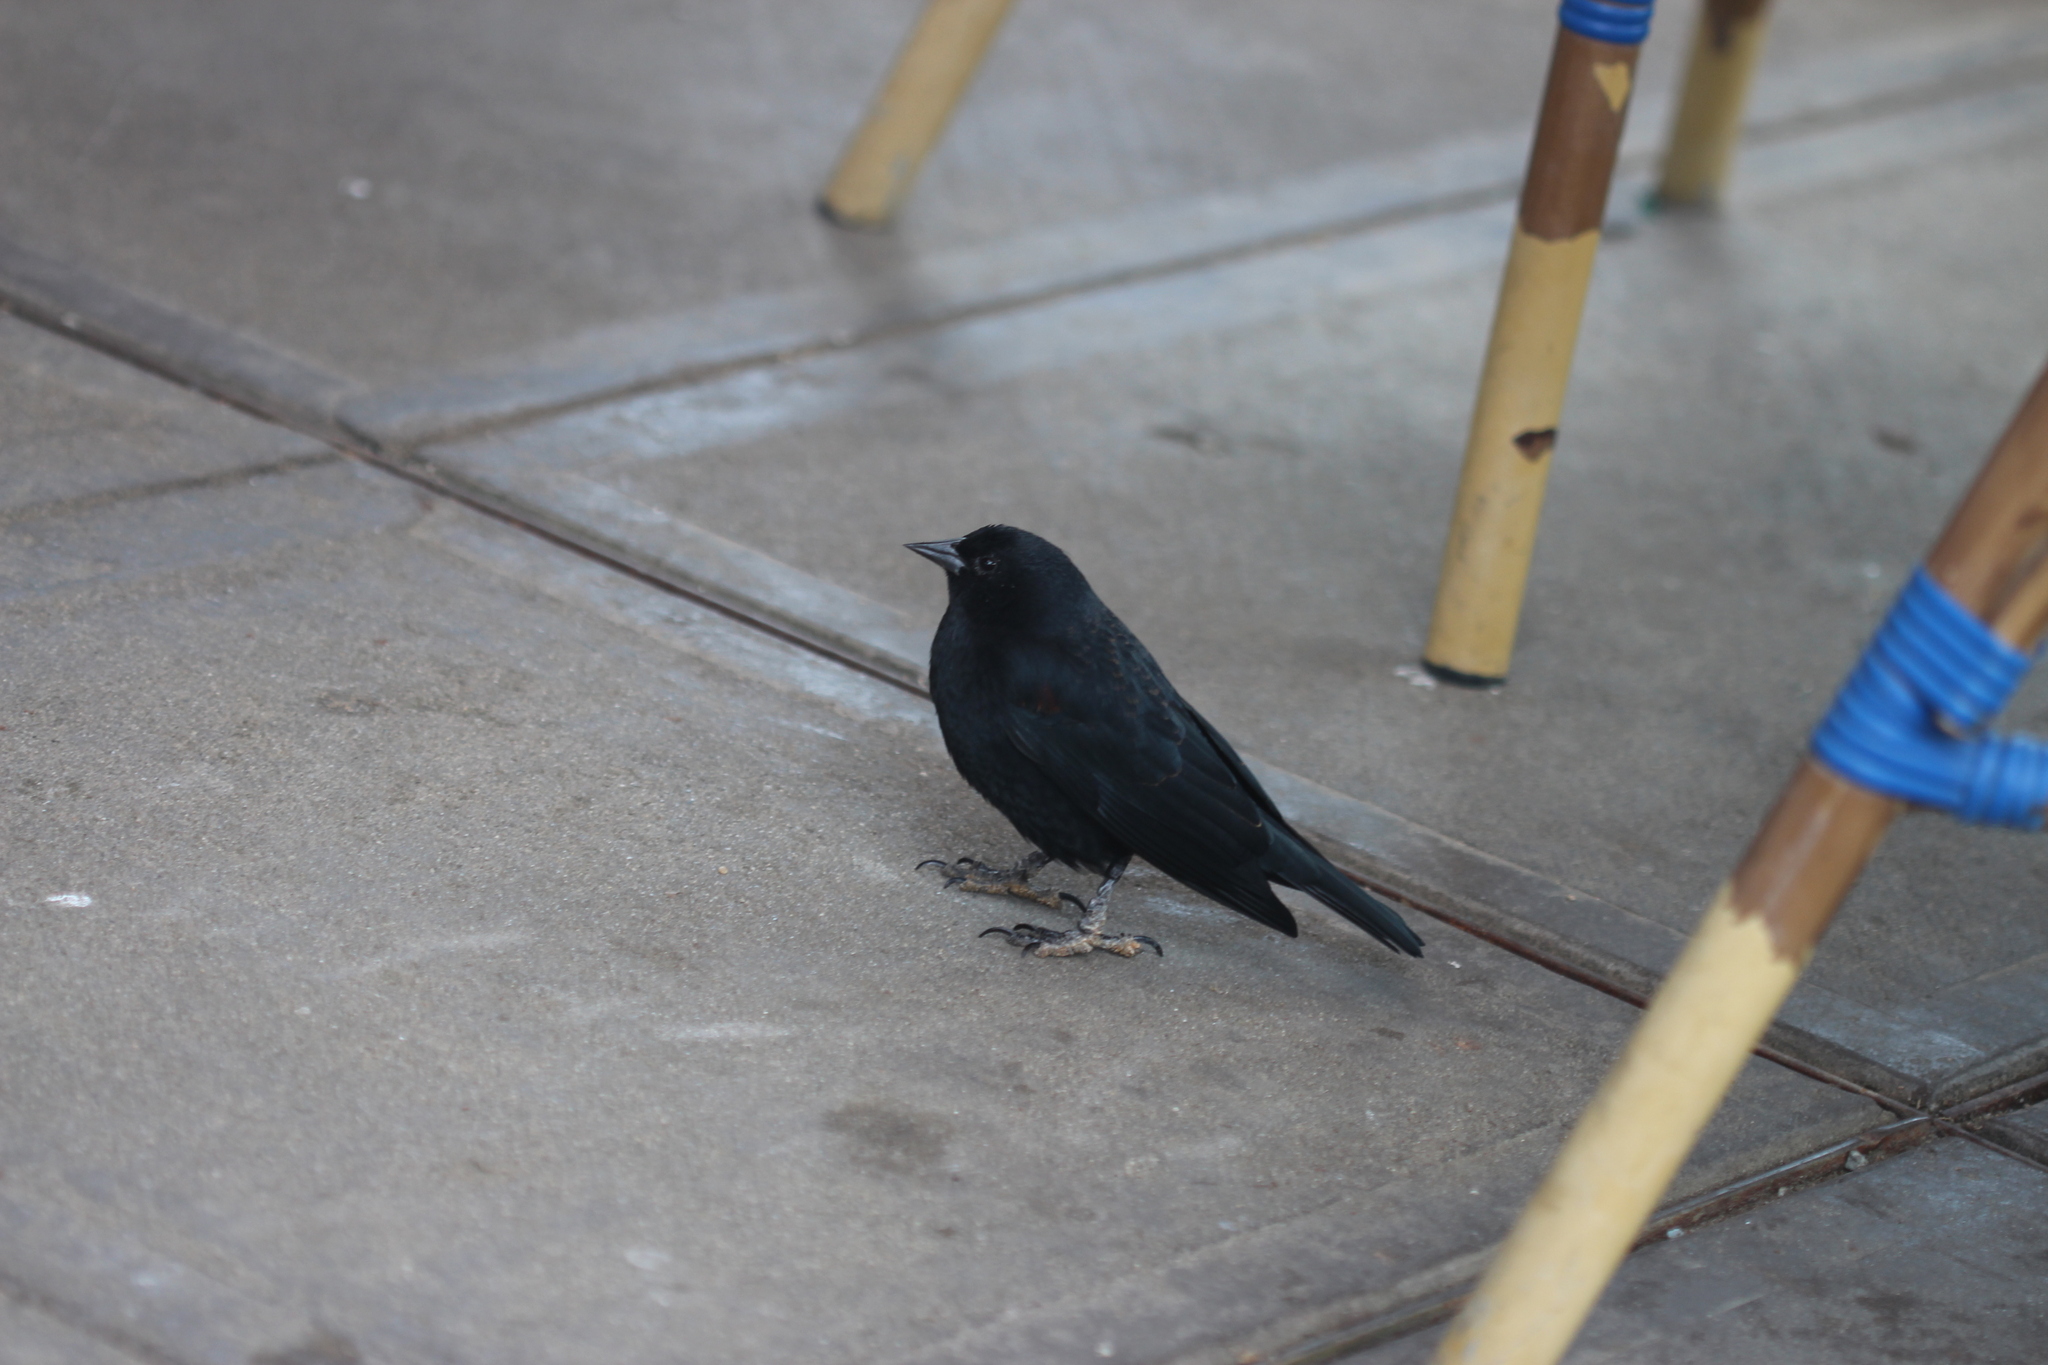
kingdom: Animalia
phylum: Chordata
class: Aves
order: Passeriformes
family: Icteridae
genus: Agelaius
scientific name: Agelaius phoeniceus
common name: Red-winged blackbird
